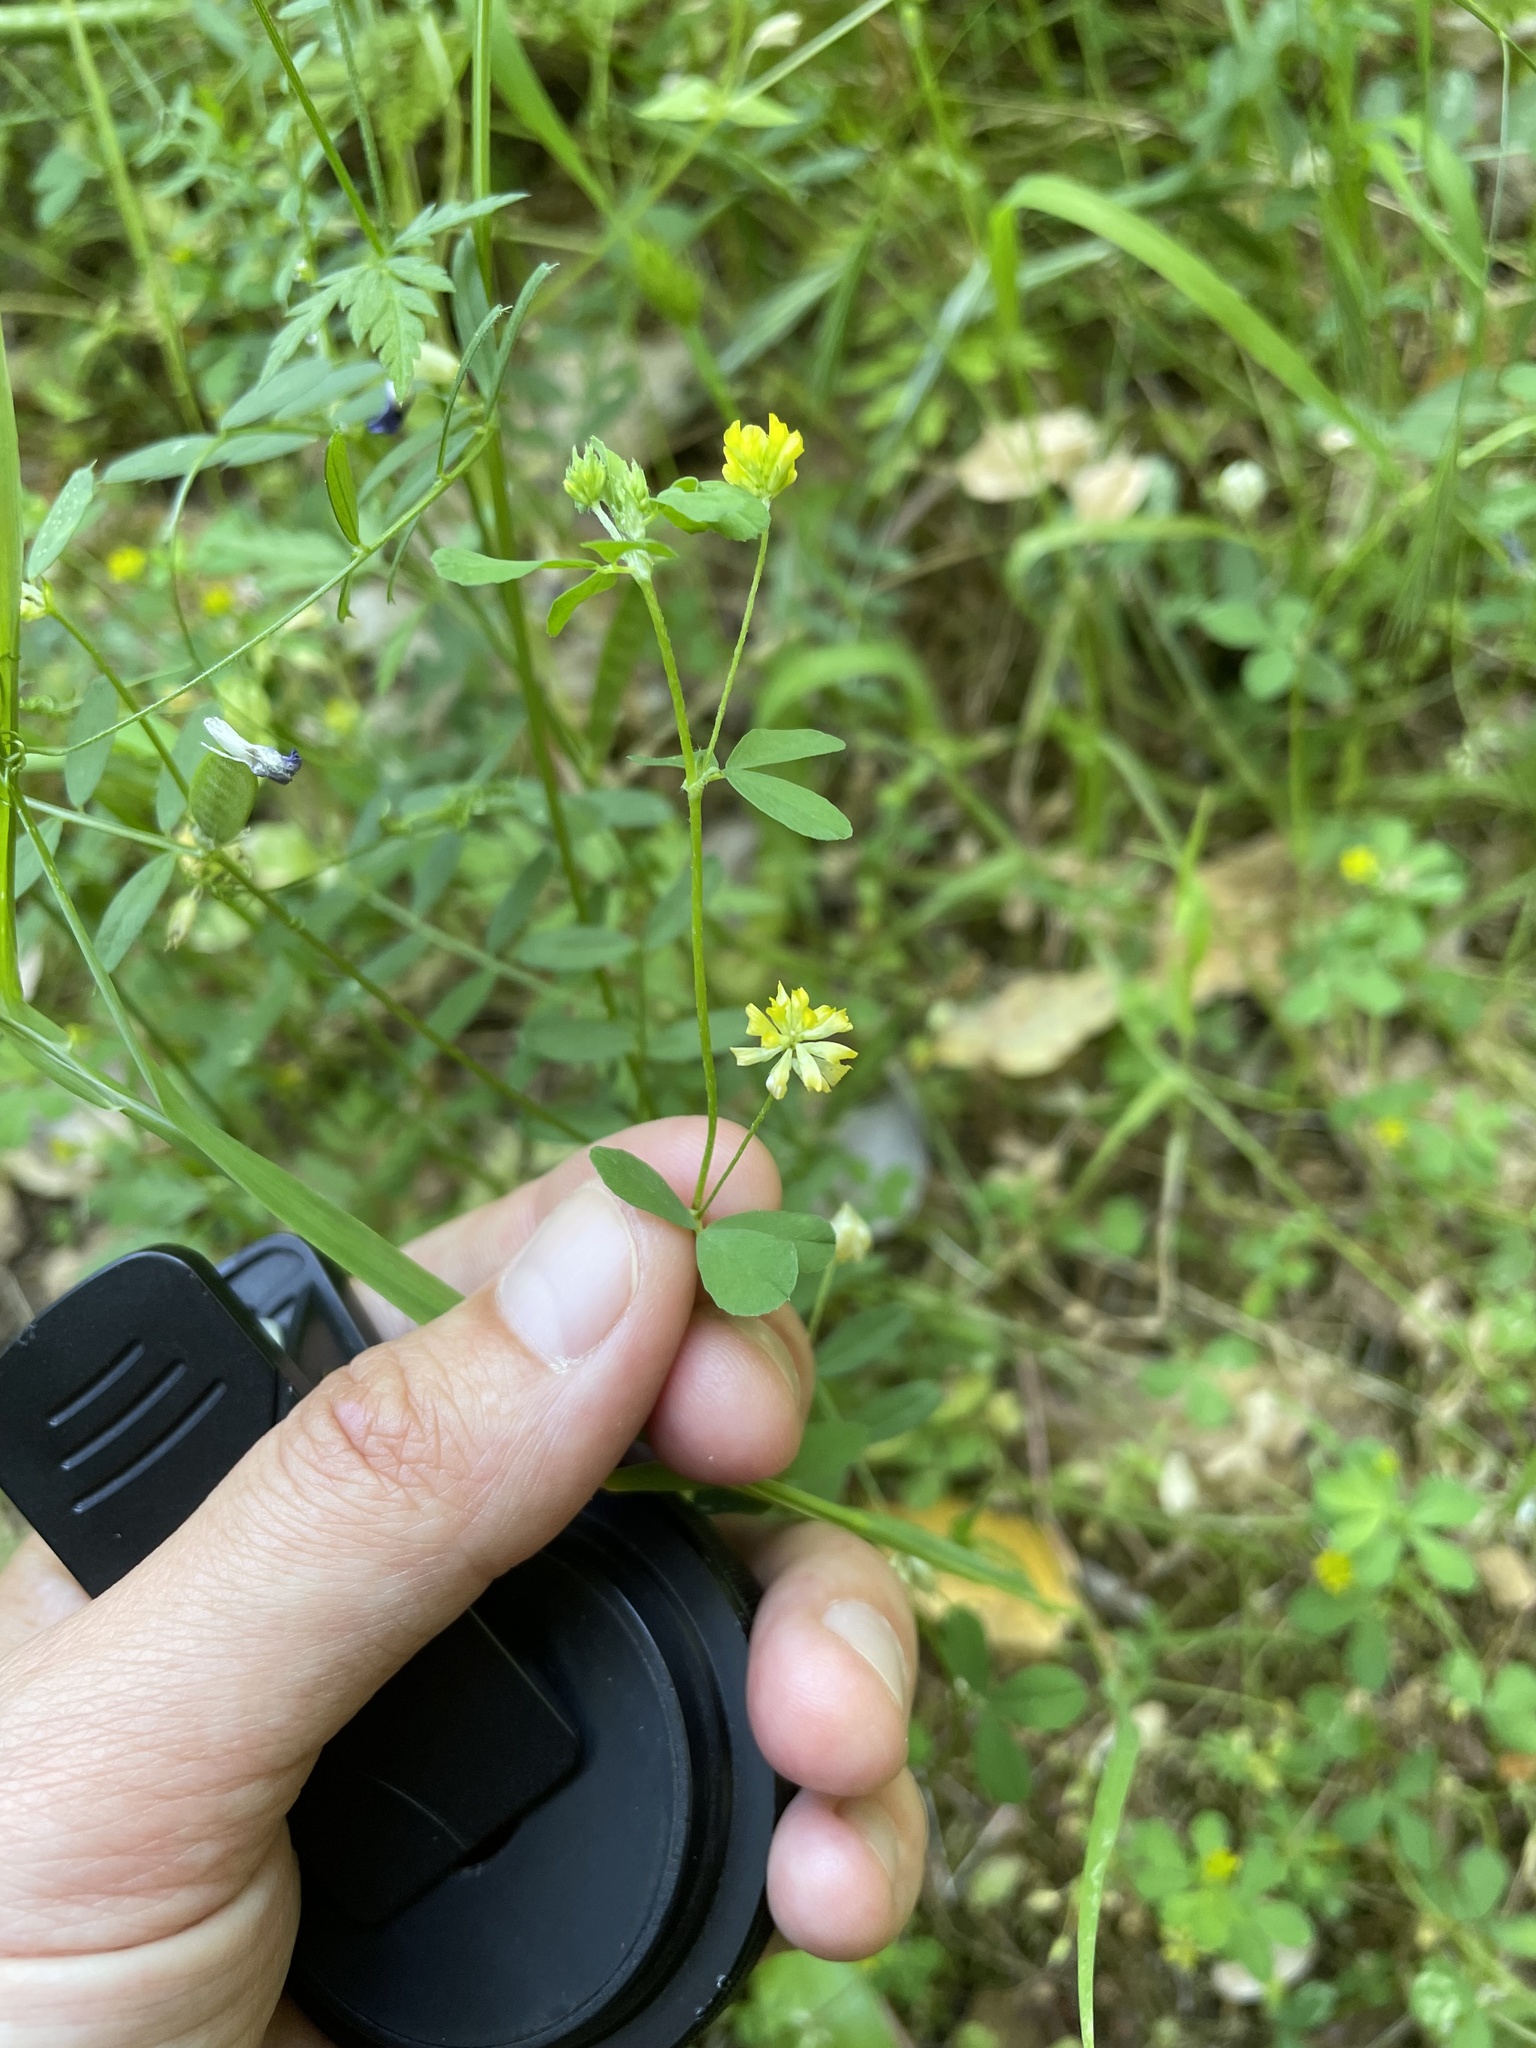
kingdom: Plantae
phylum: Tracheophyta
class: Magnoliopsida
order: Fabales
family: Fabaceae
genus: Trifolium
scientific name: Trifolium dubium
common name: Suckling clover
